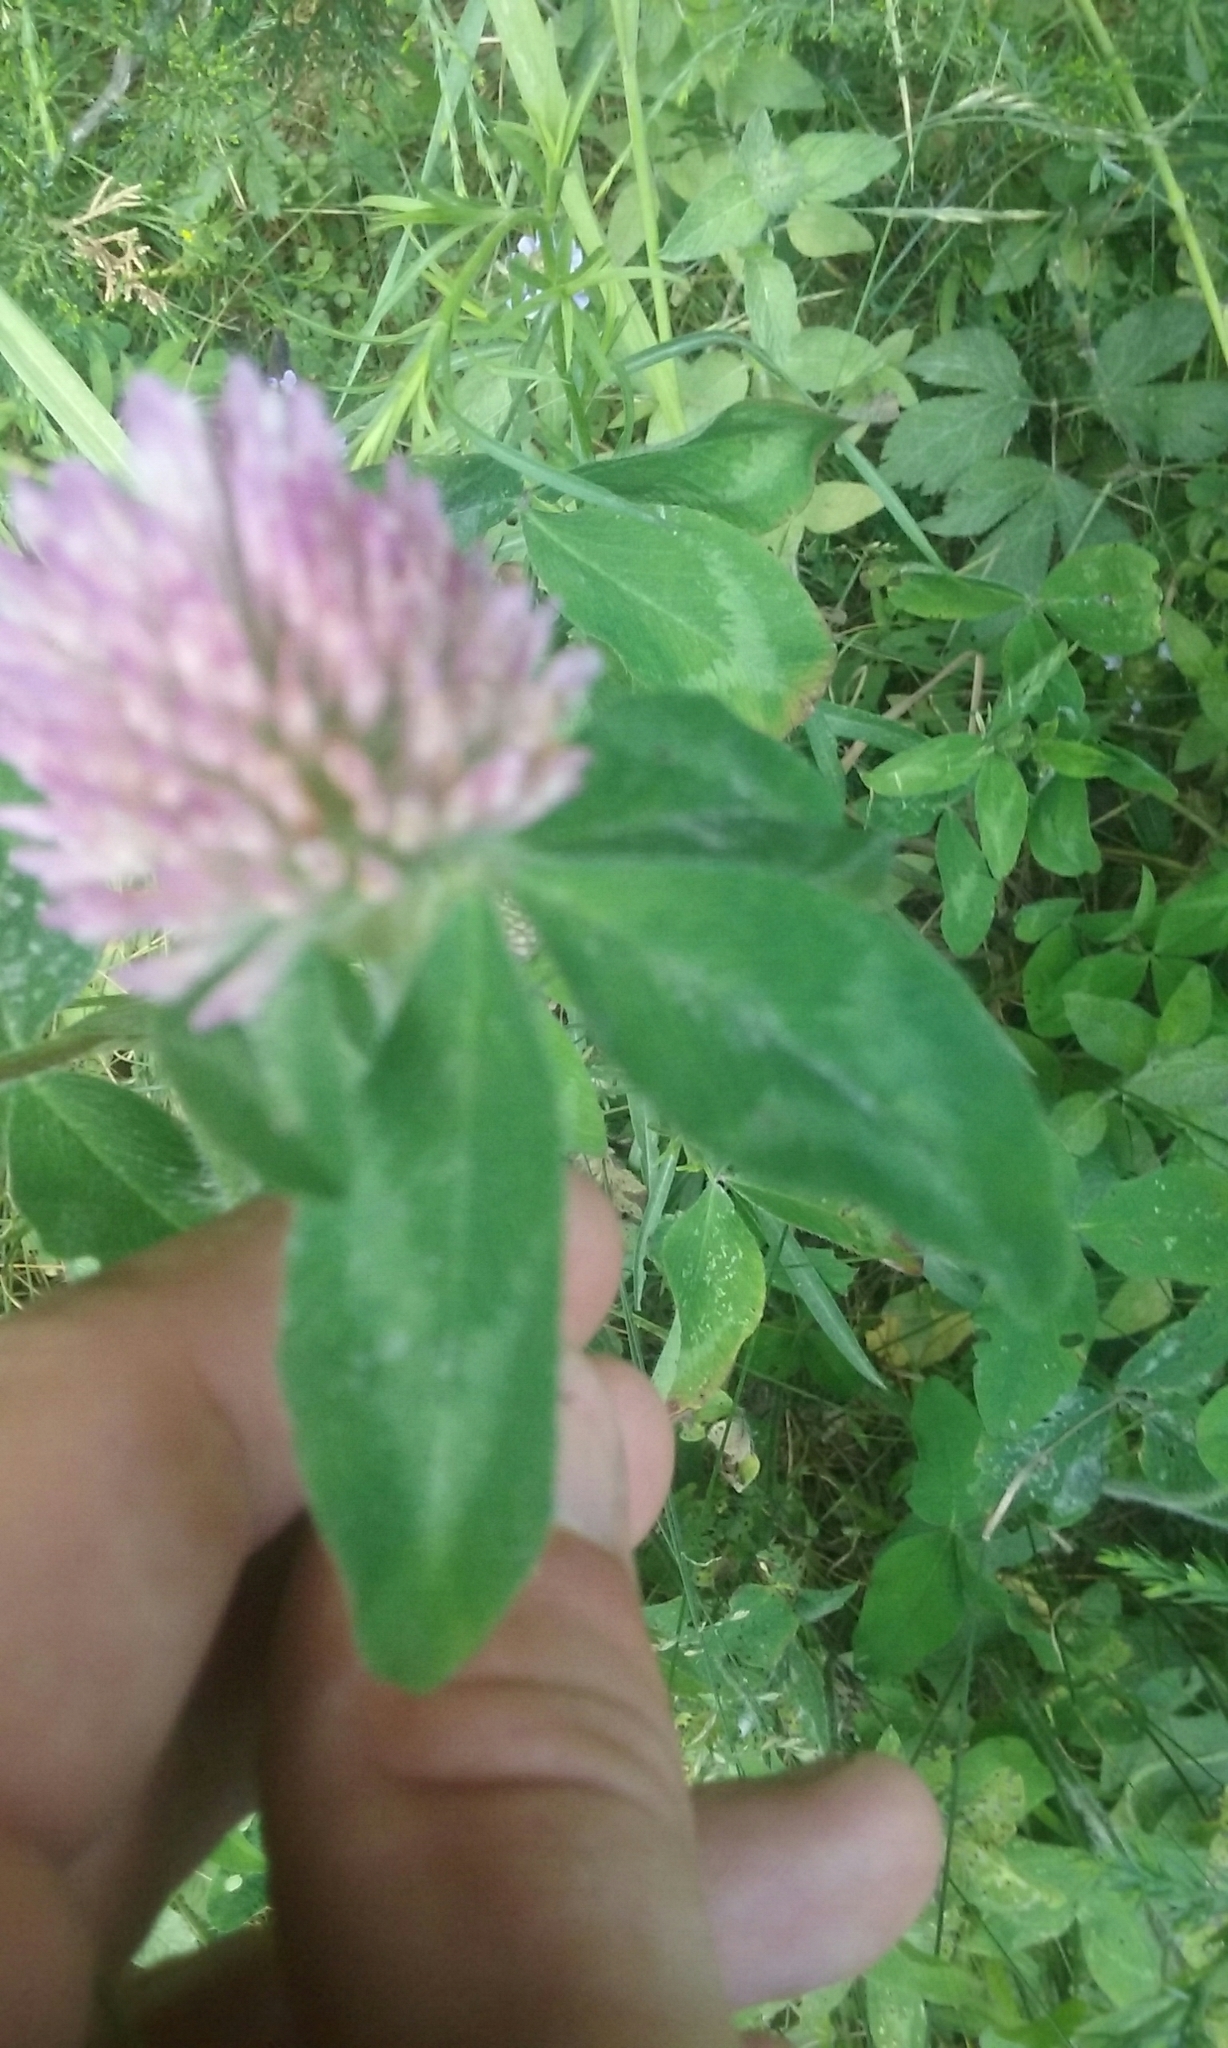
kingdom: Plantae
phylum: Tracheophyta
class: Magnoliopsida
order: Fabales
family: Fabaceae
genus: Trifolium
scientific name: Trifolium pratense
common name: Red clover
